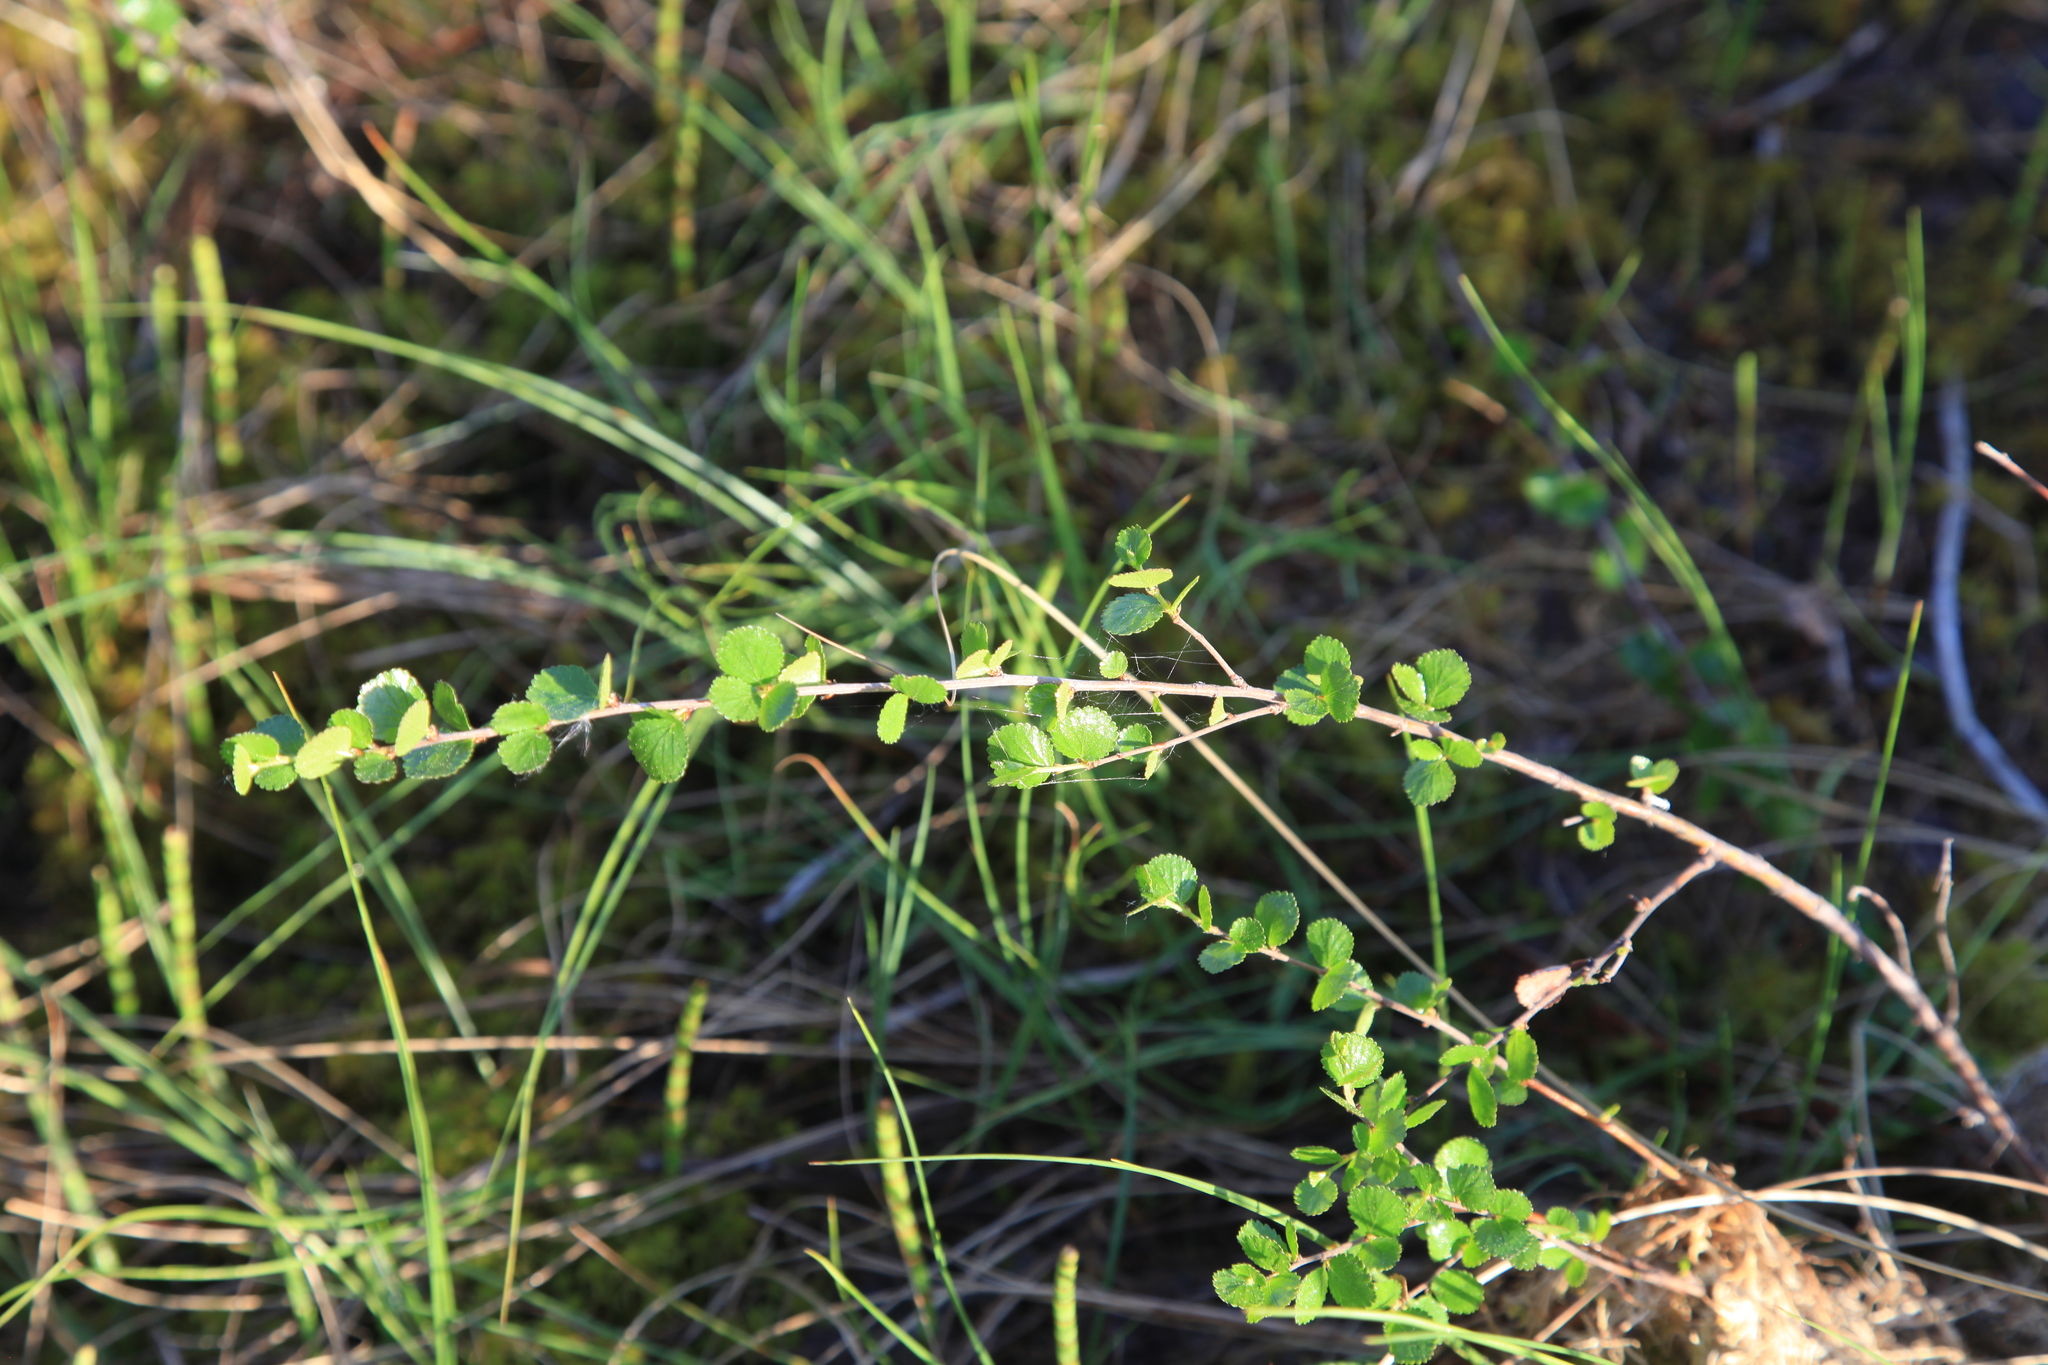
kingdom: Plantae
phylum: Tracheophyta
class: Magnoliopsida
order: Fagales
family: Betulaceae
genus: Betula
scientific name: Betula nana
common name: Arctic dwarf birch
